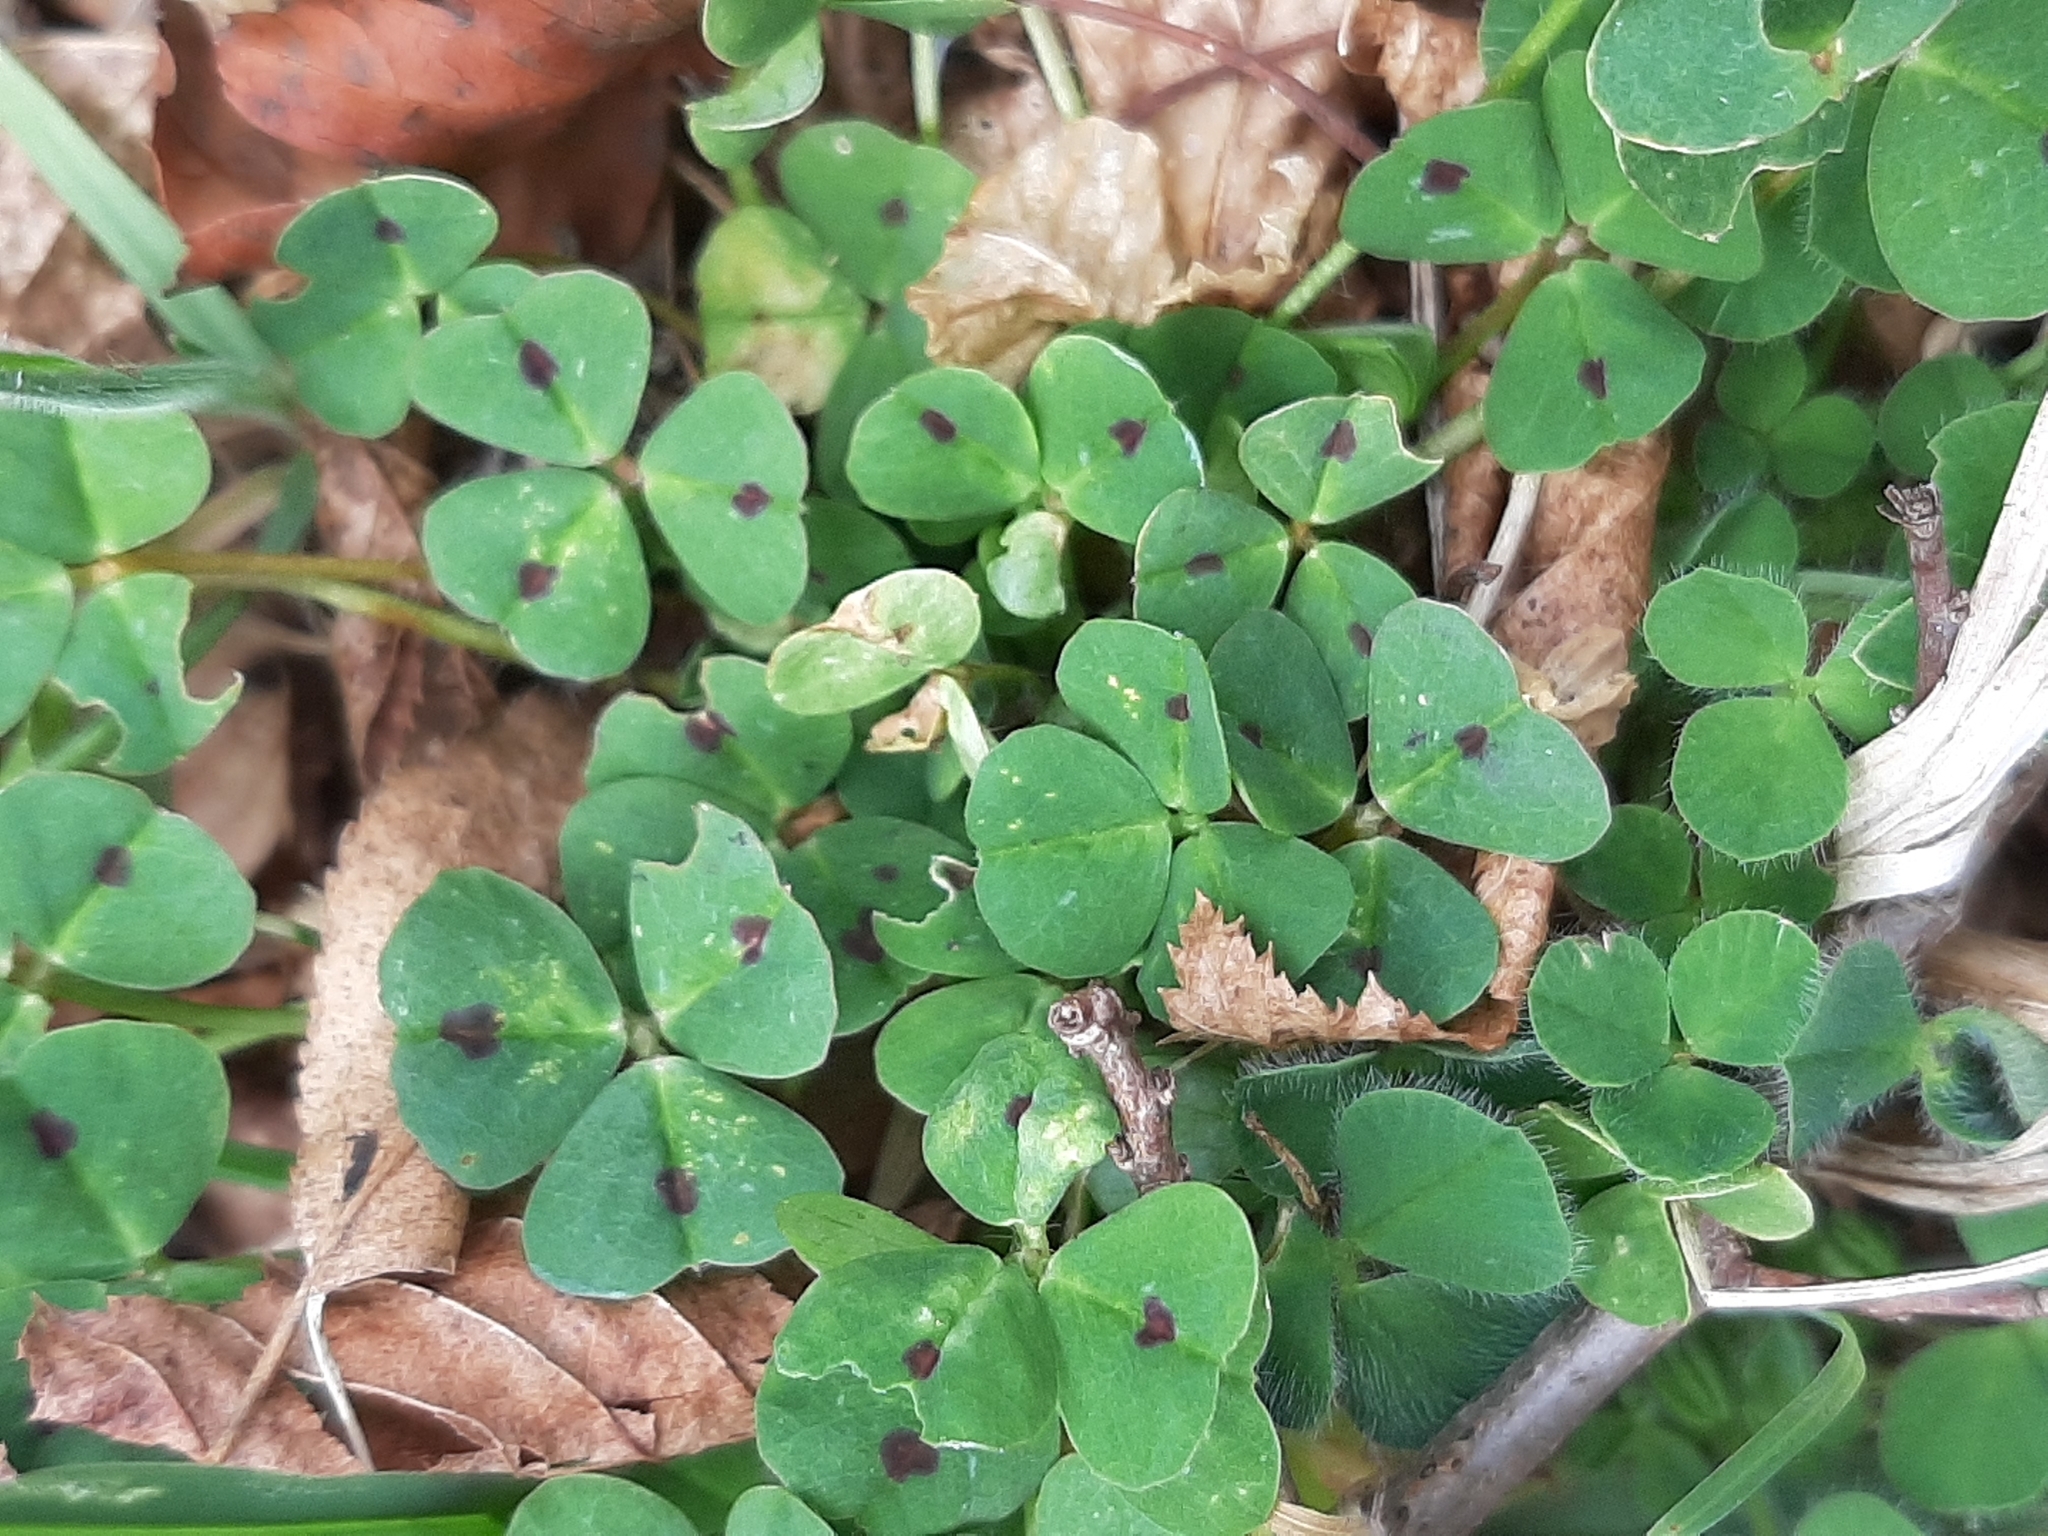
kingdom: Plantae
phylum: Tracheophyta
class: Magnoliopsida
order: Fabales
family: Fabaceae
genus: Medicago
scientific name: Medicago arabica
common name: Spotted medick
